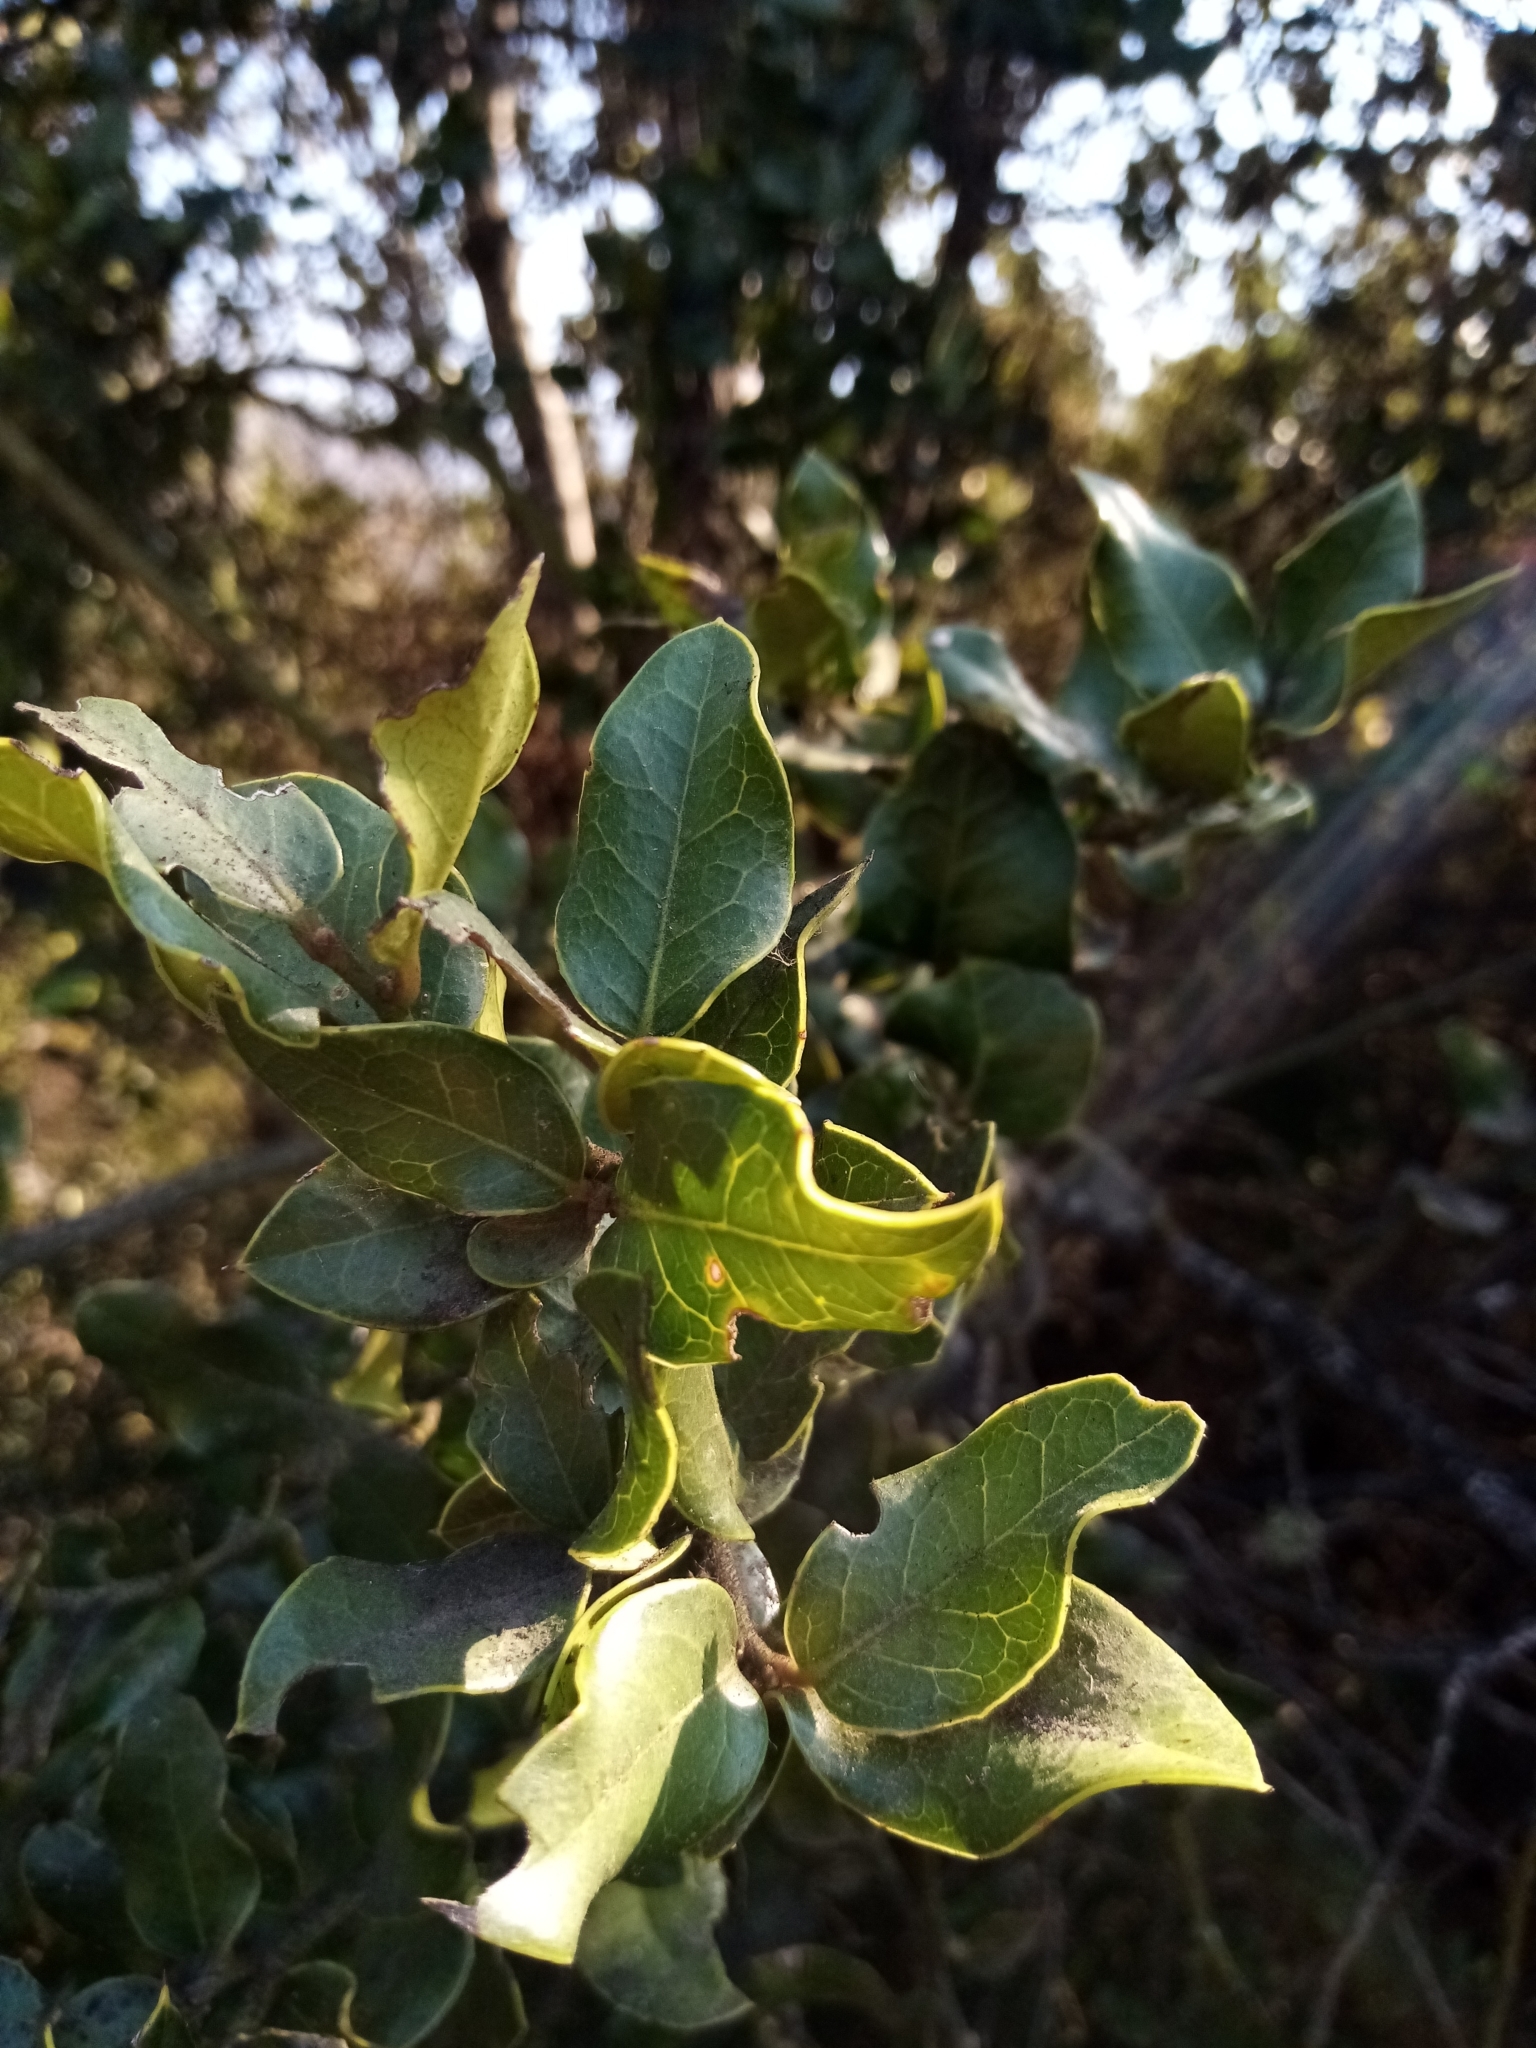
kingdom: Plantae
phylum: Tracheophyta
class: Magnoliopsida
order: Cardiopteridales
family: Cardiopteridaceae
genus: Citronella
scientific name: Citronella mucronata
